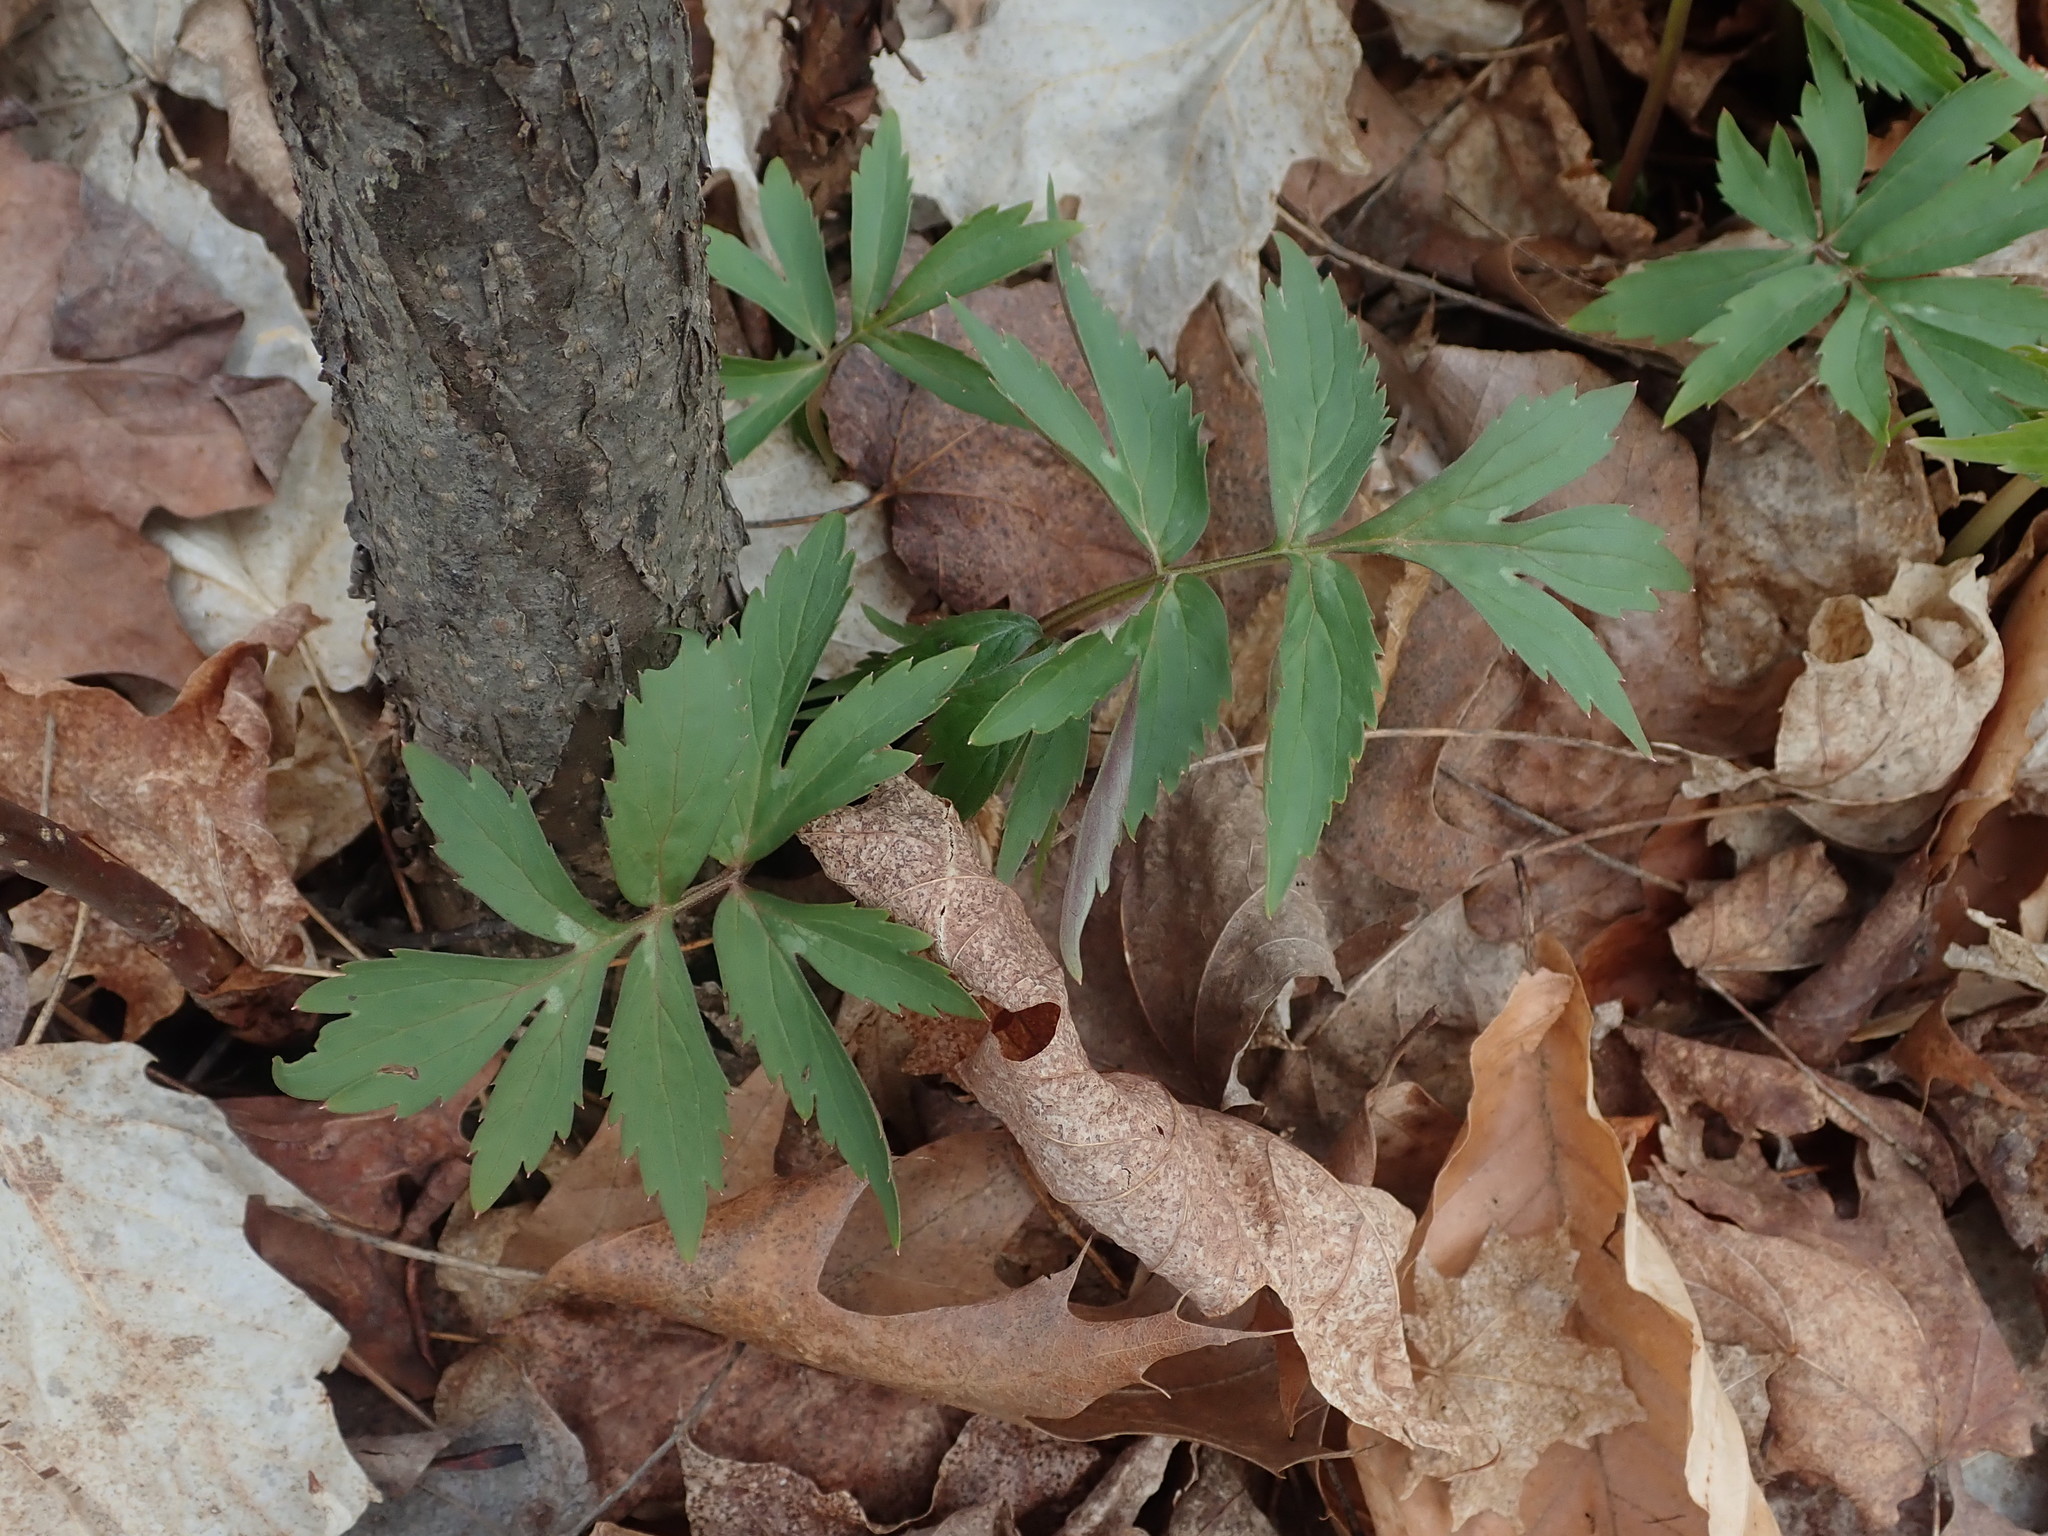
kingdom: Plantae
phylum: Tracheophyta
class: Magnoliopsida
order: Boraginales
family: Hydrophyllaceae
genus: Hydrophyllum
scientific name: Hydrophyllum virginianum
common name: Virginia waterleaf
